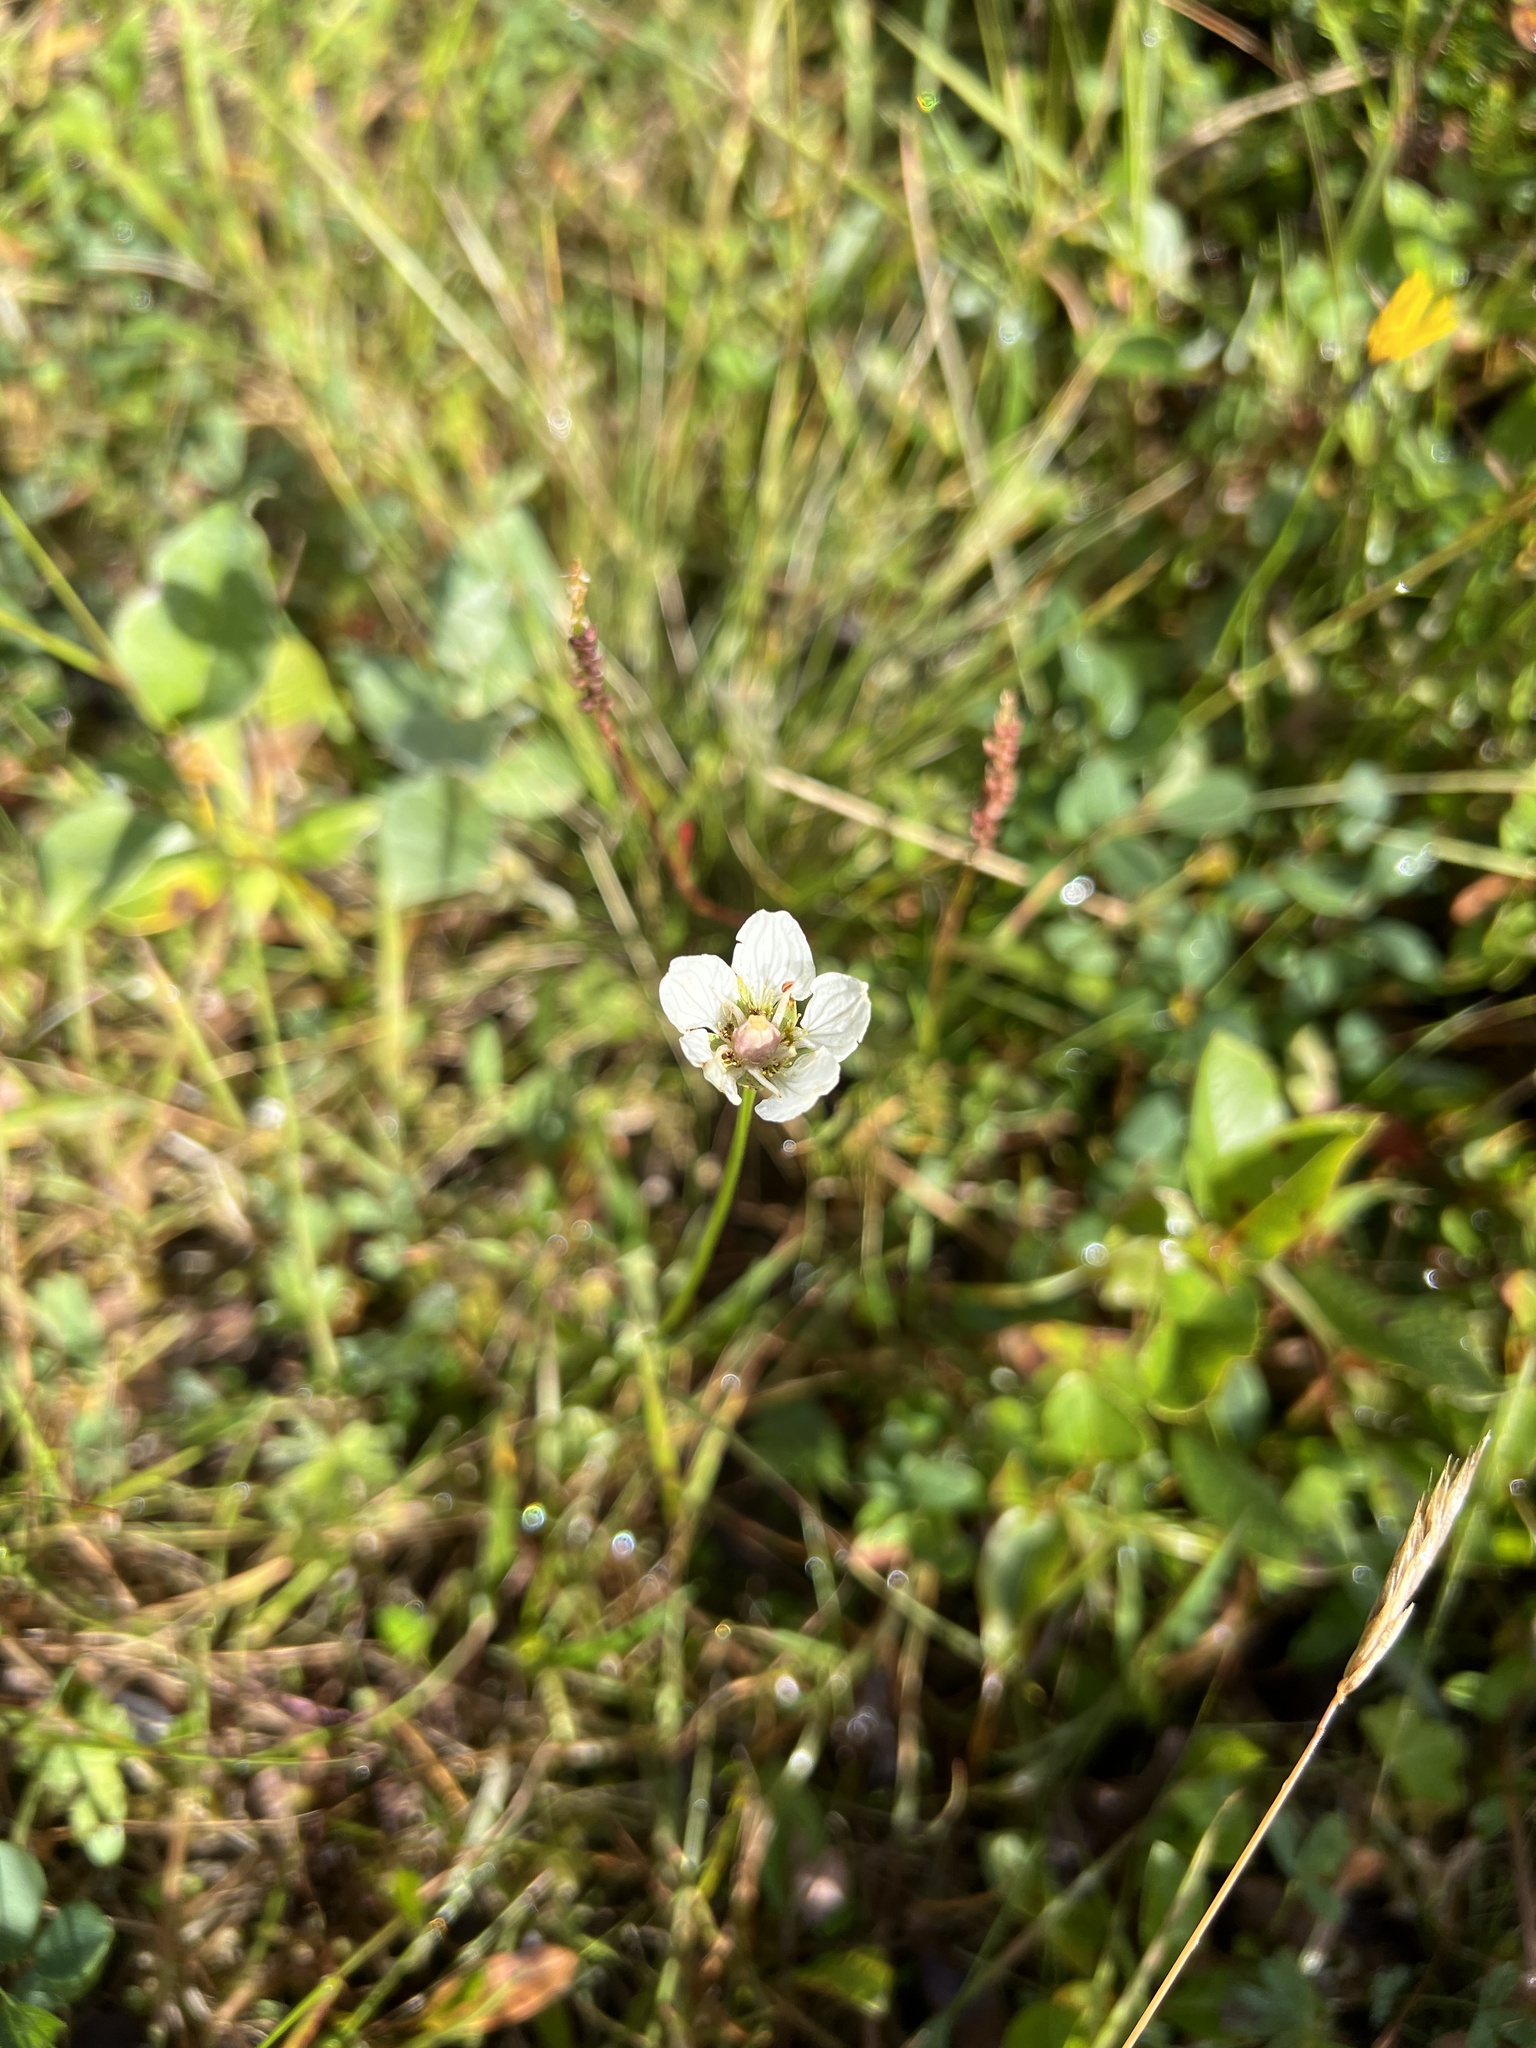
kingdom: Plantae
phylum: Tracheophyta
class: Magnoliopsida
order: Celastrales
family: Parnassiaceae
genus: Parnassia
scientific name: Parnassia palustris
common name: Grass-of-parnassus
